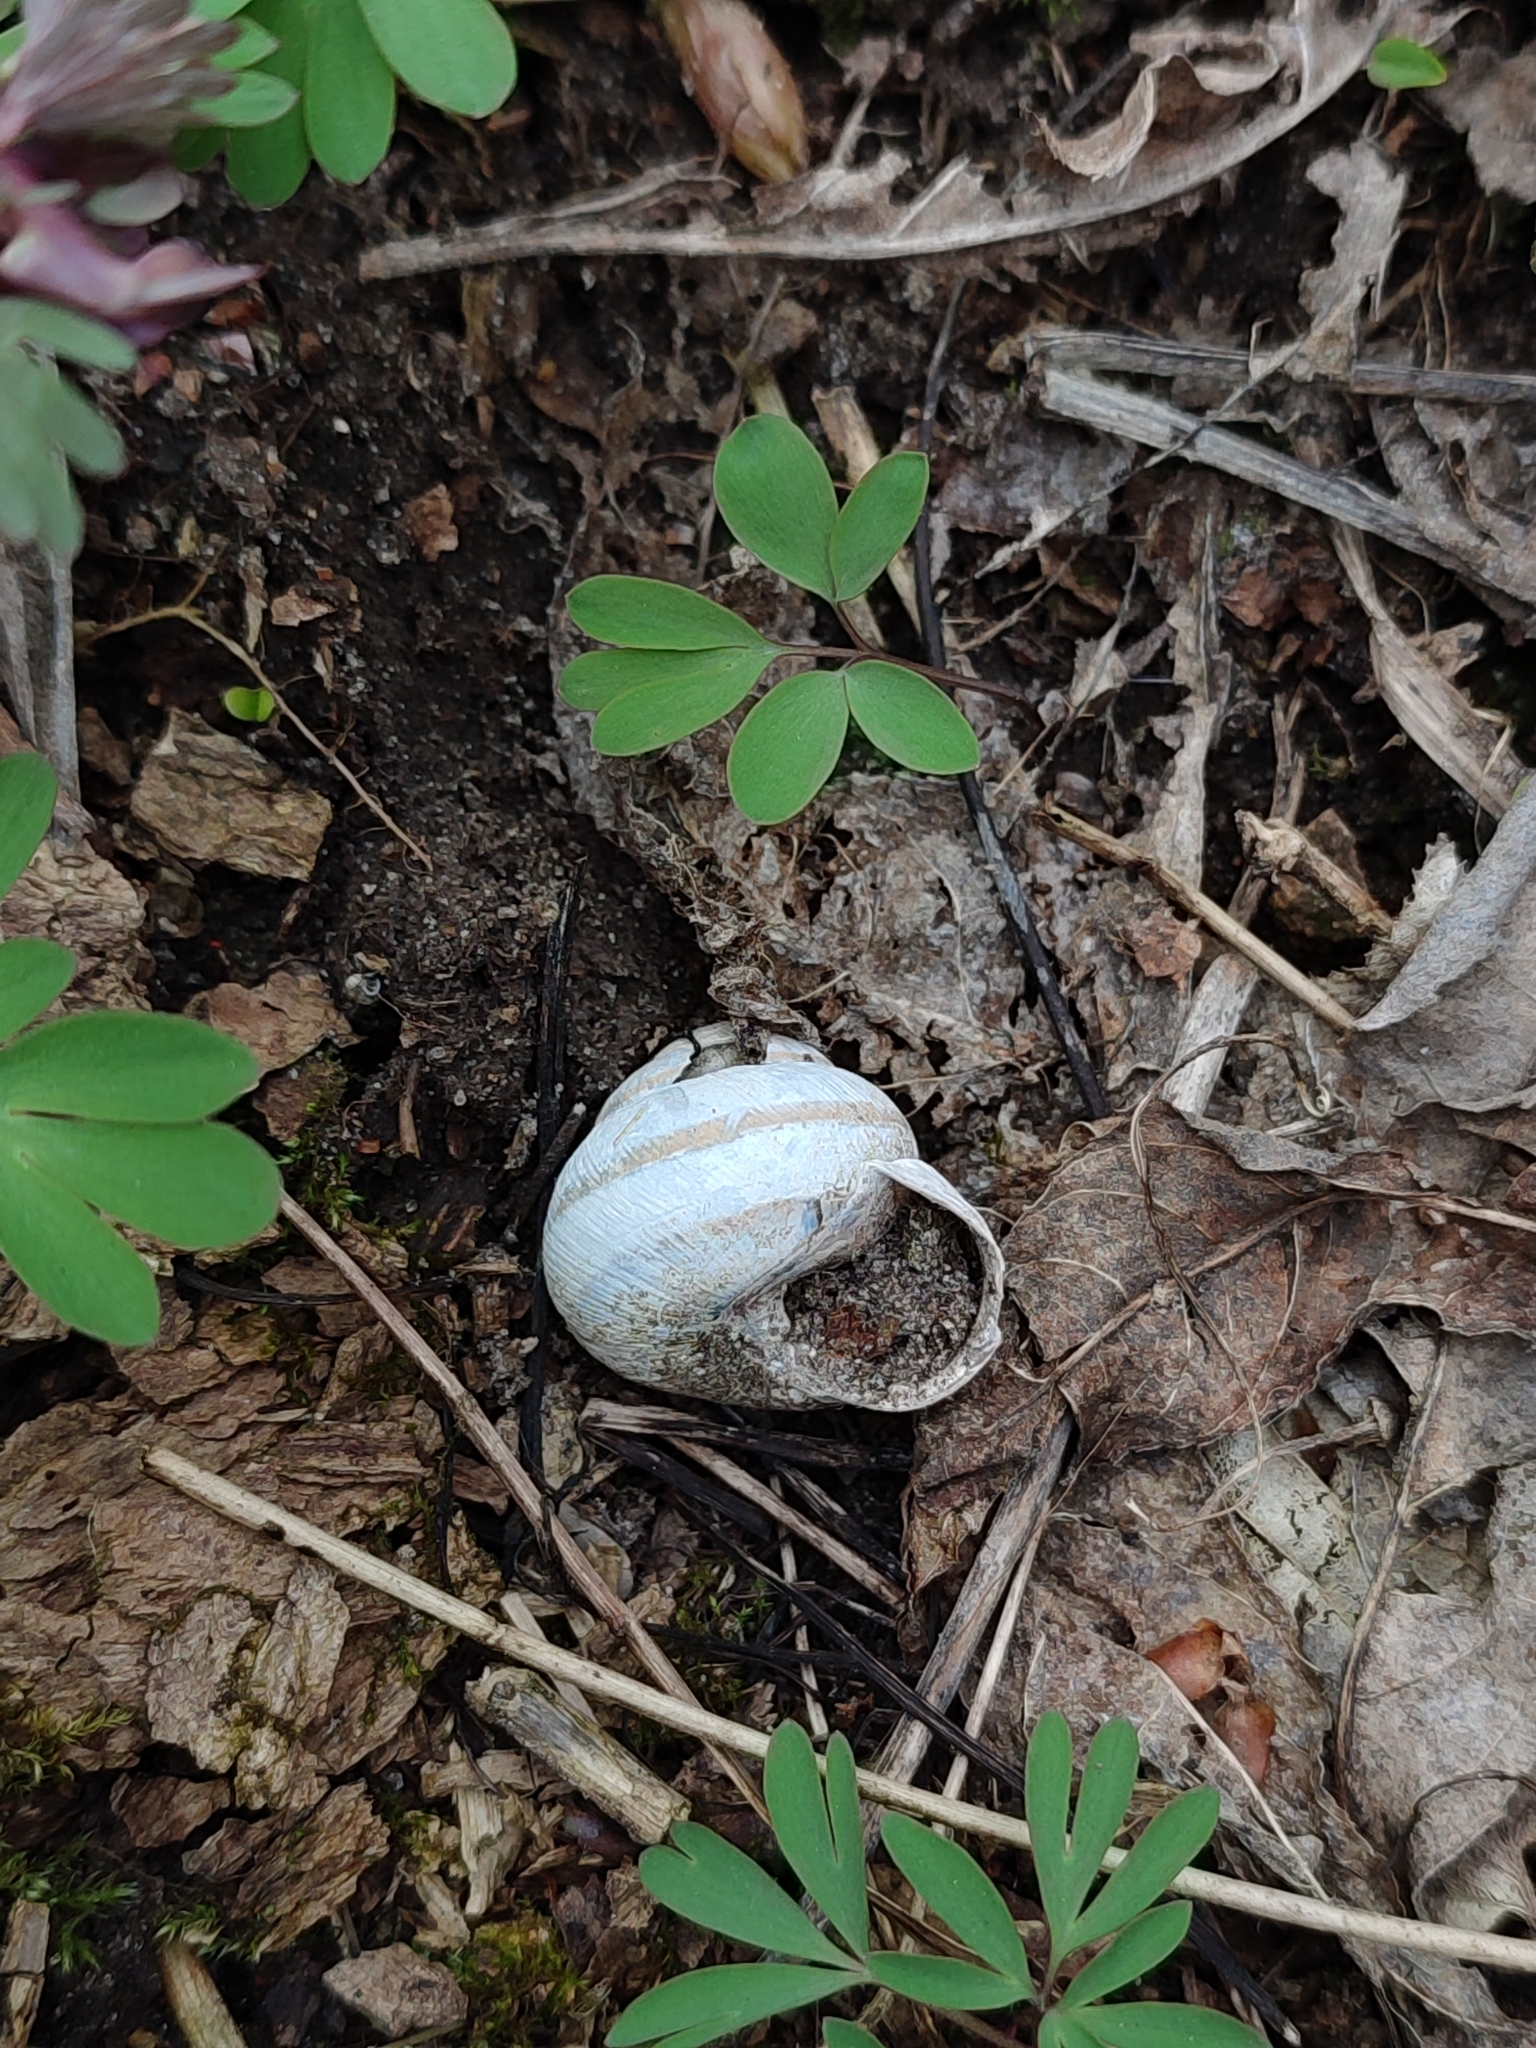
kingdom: Animalia
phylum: Mollusca
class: Gastropoda
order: Stylommatophora
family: Helicidae
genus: Caucasotachea
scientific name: Caucasotachea vindobonensis
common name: European helicid land snail
